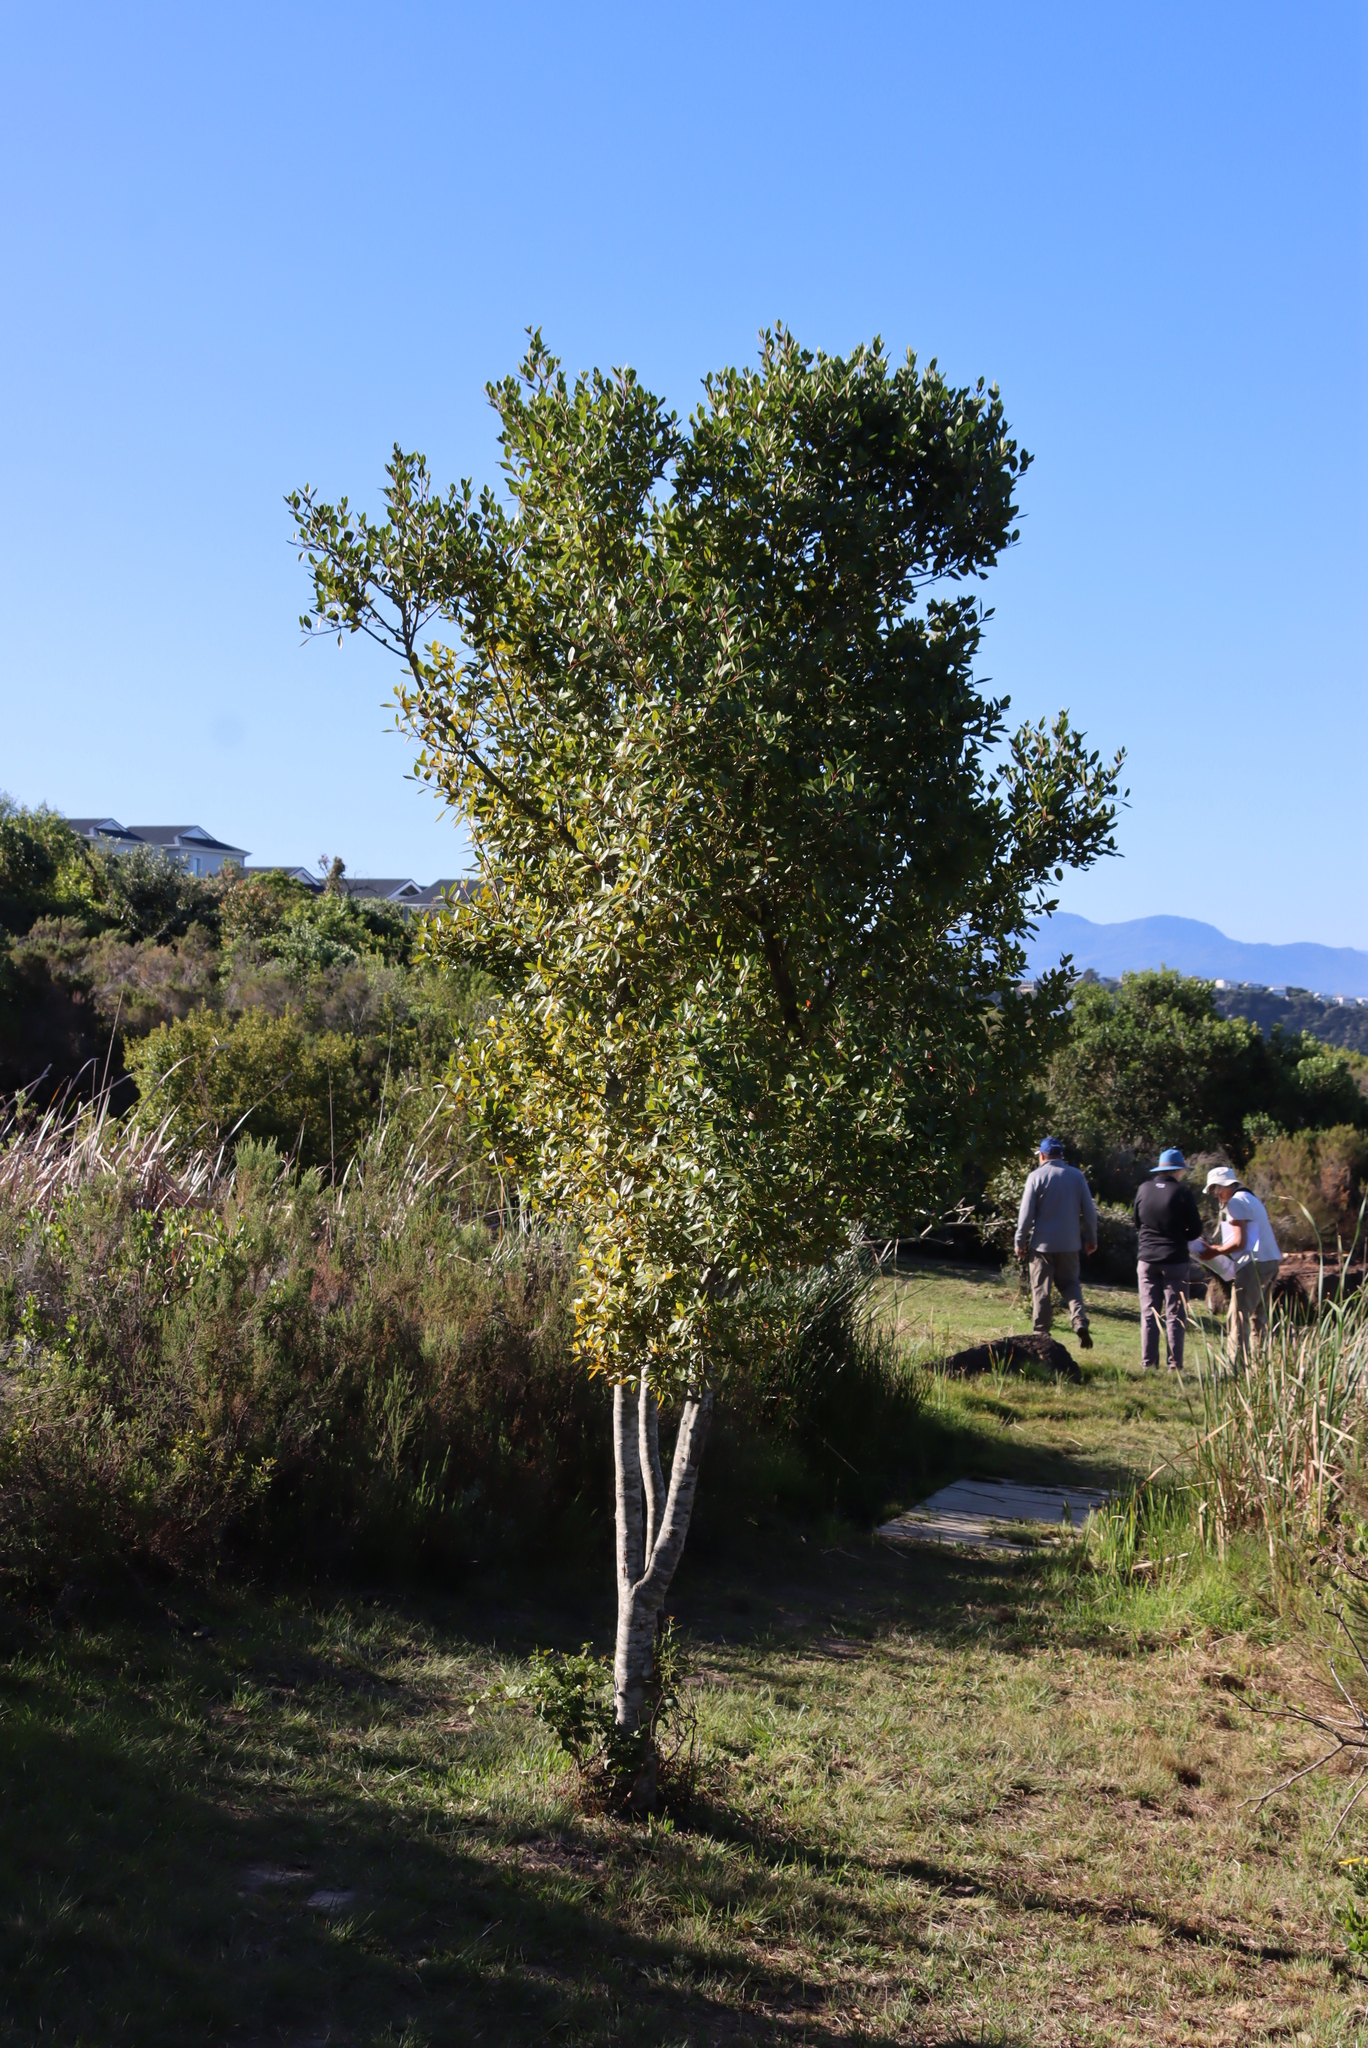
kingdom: Plantae
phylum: Tracheophyta
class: Magnoliopsida
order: Metteniusales
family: Metteniusaceae
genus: Apodytes
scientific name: Apodytes dimidiata
